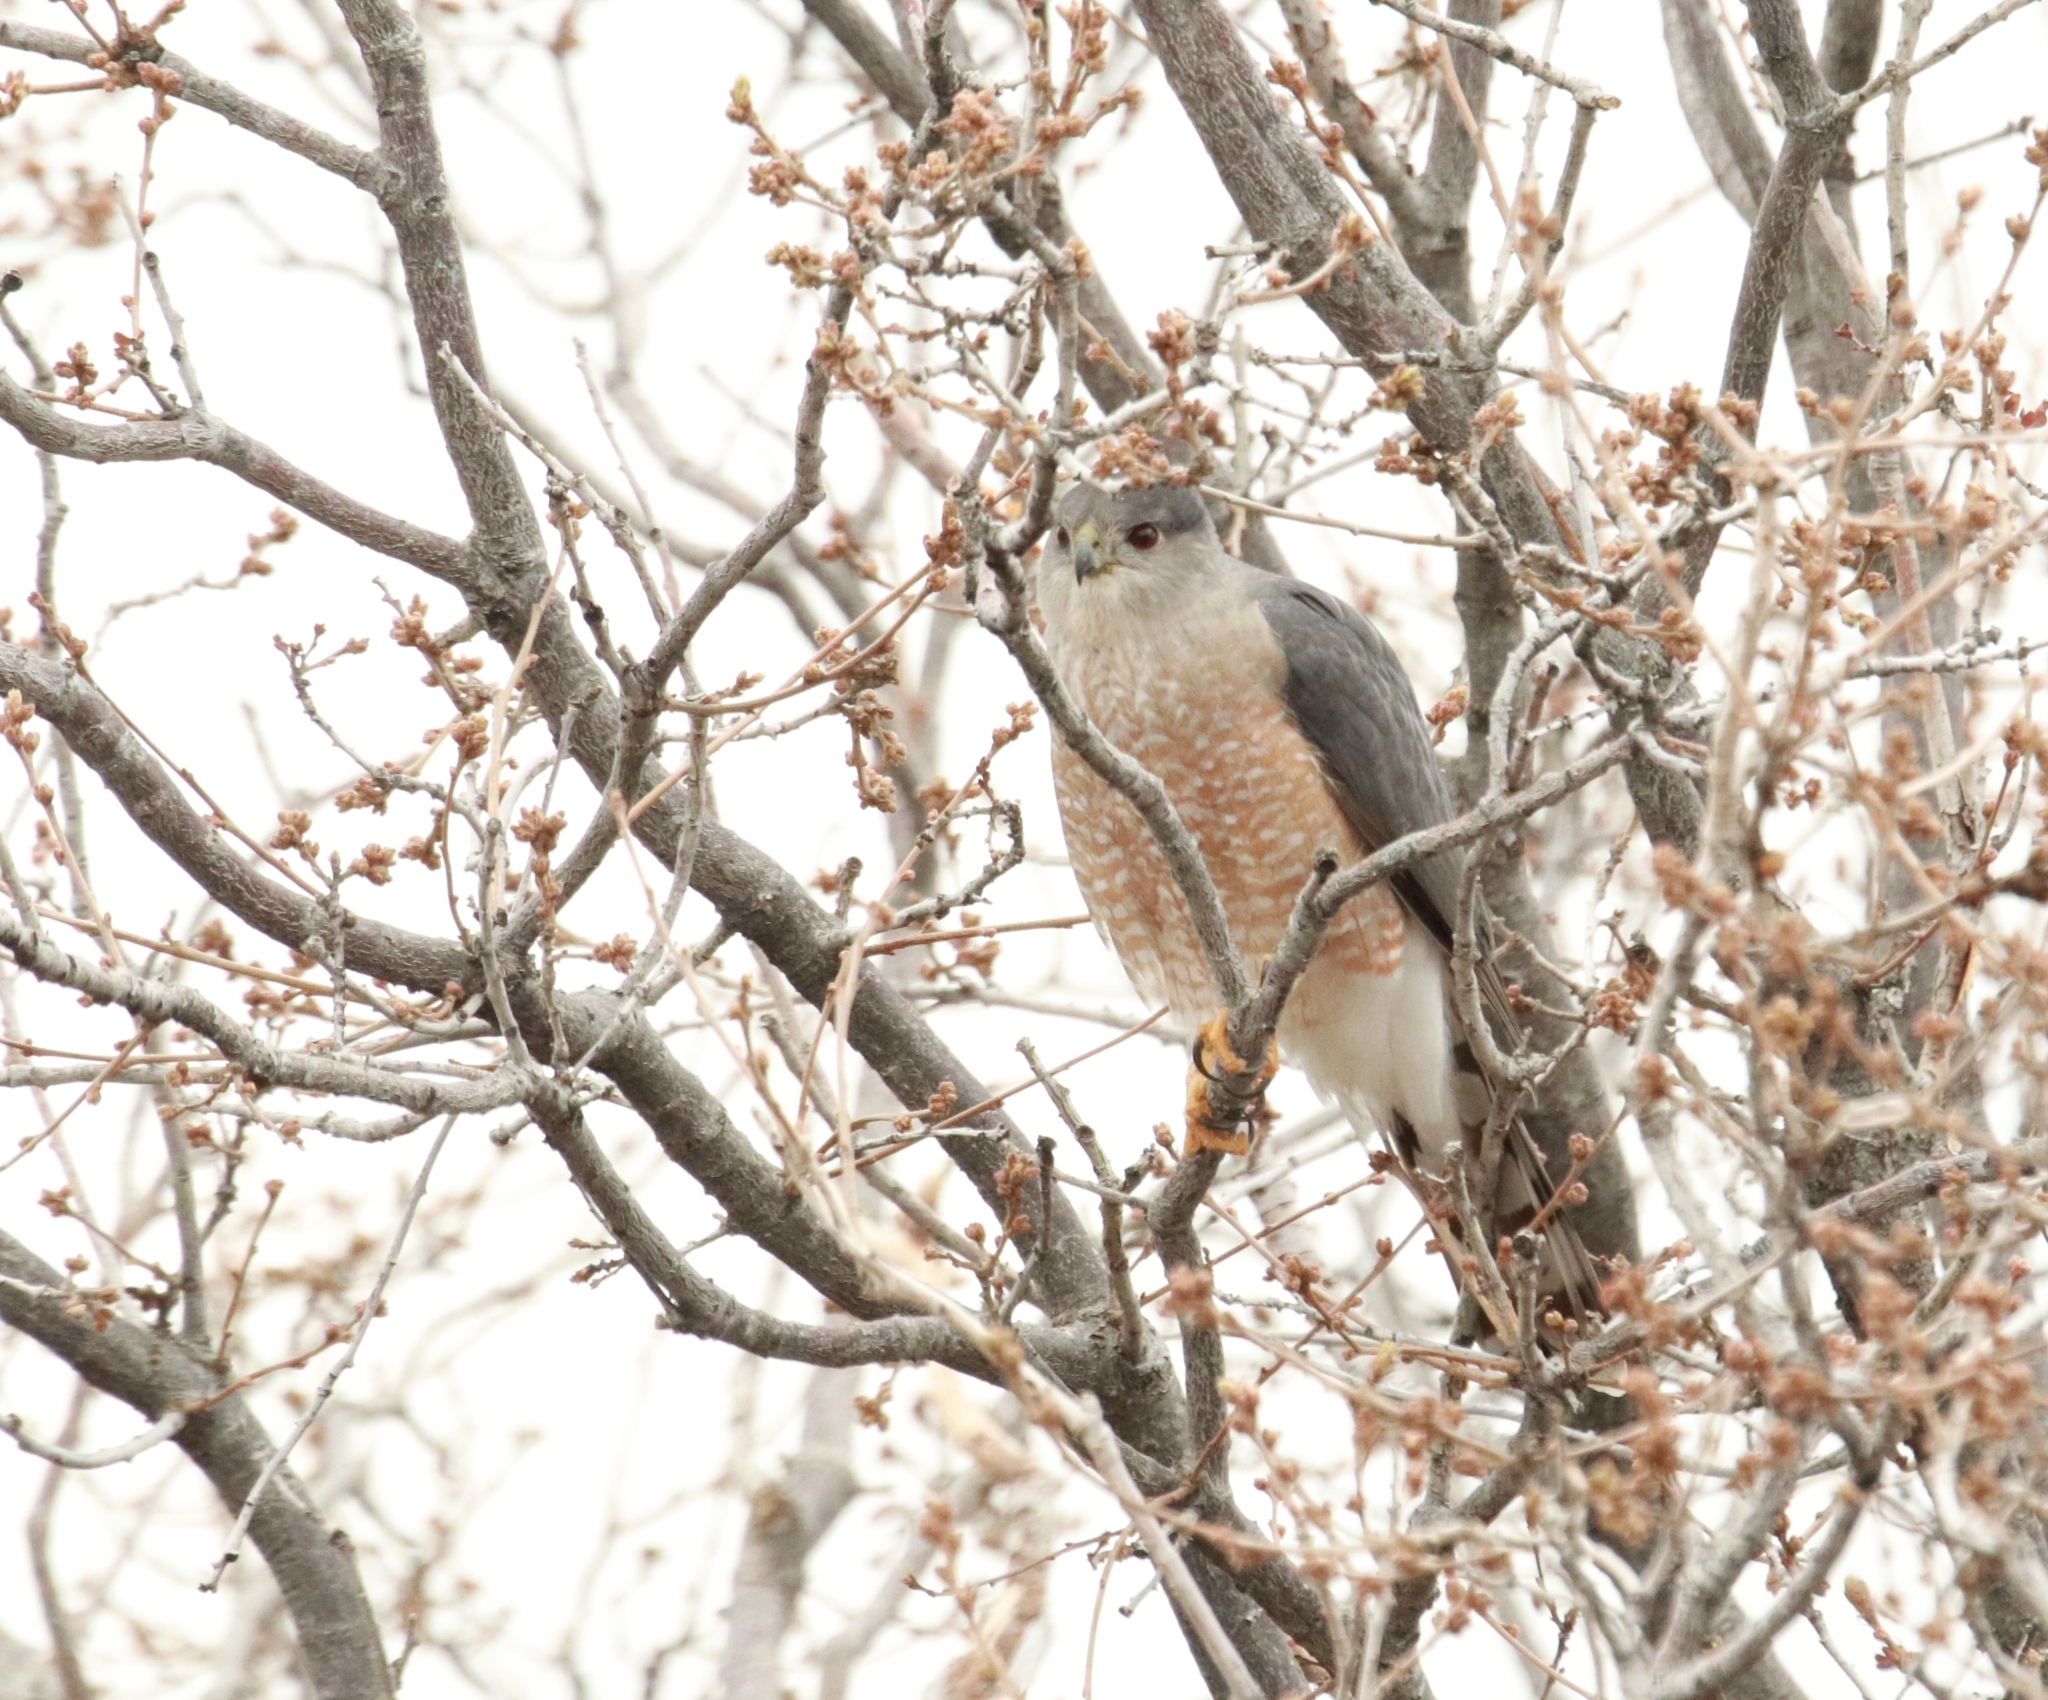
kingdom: Animalia
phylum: Chordata
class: Aves
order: Accipitriformes
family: Accipitridae
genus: Accipiter
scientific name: Accipiter cooperii
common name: Cooper's hawk
